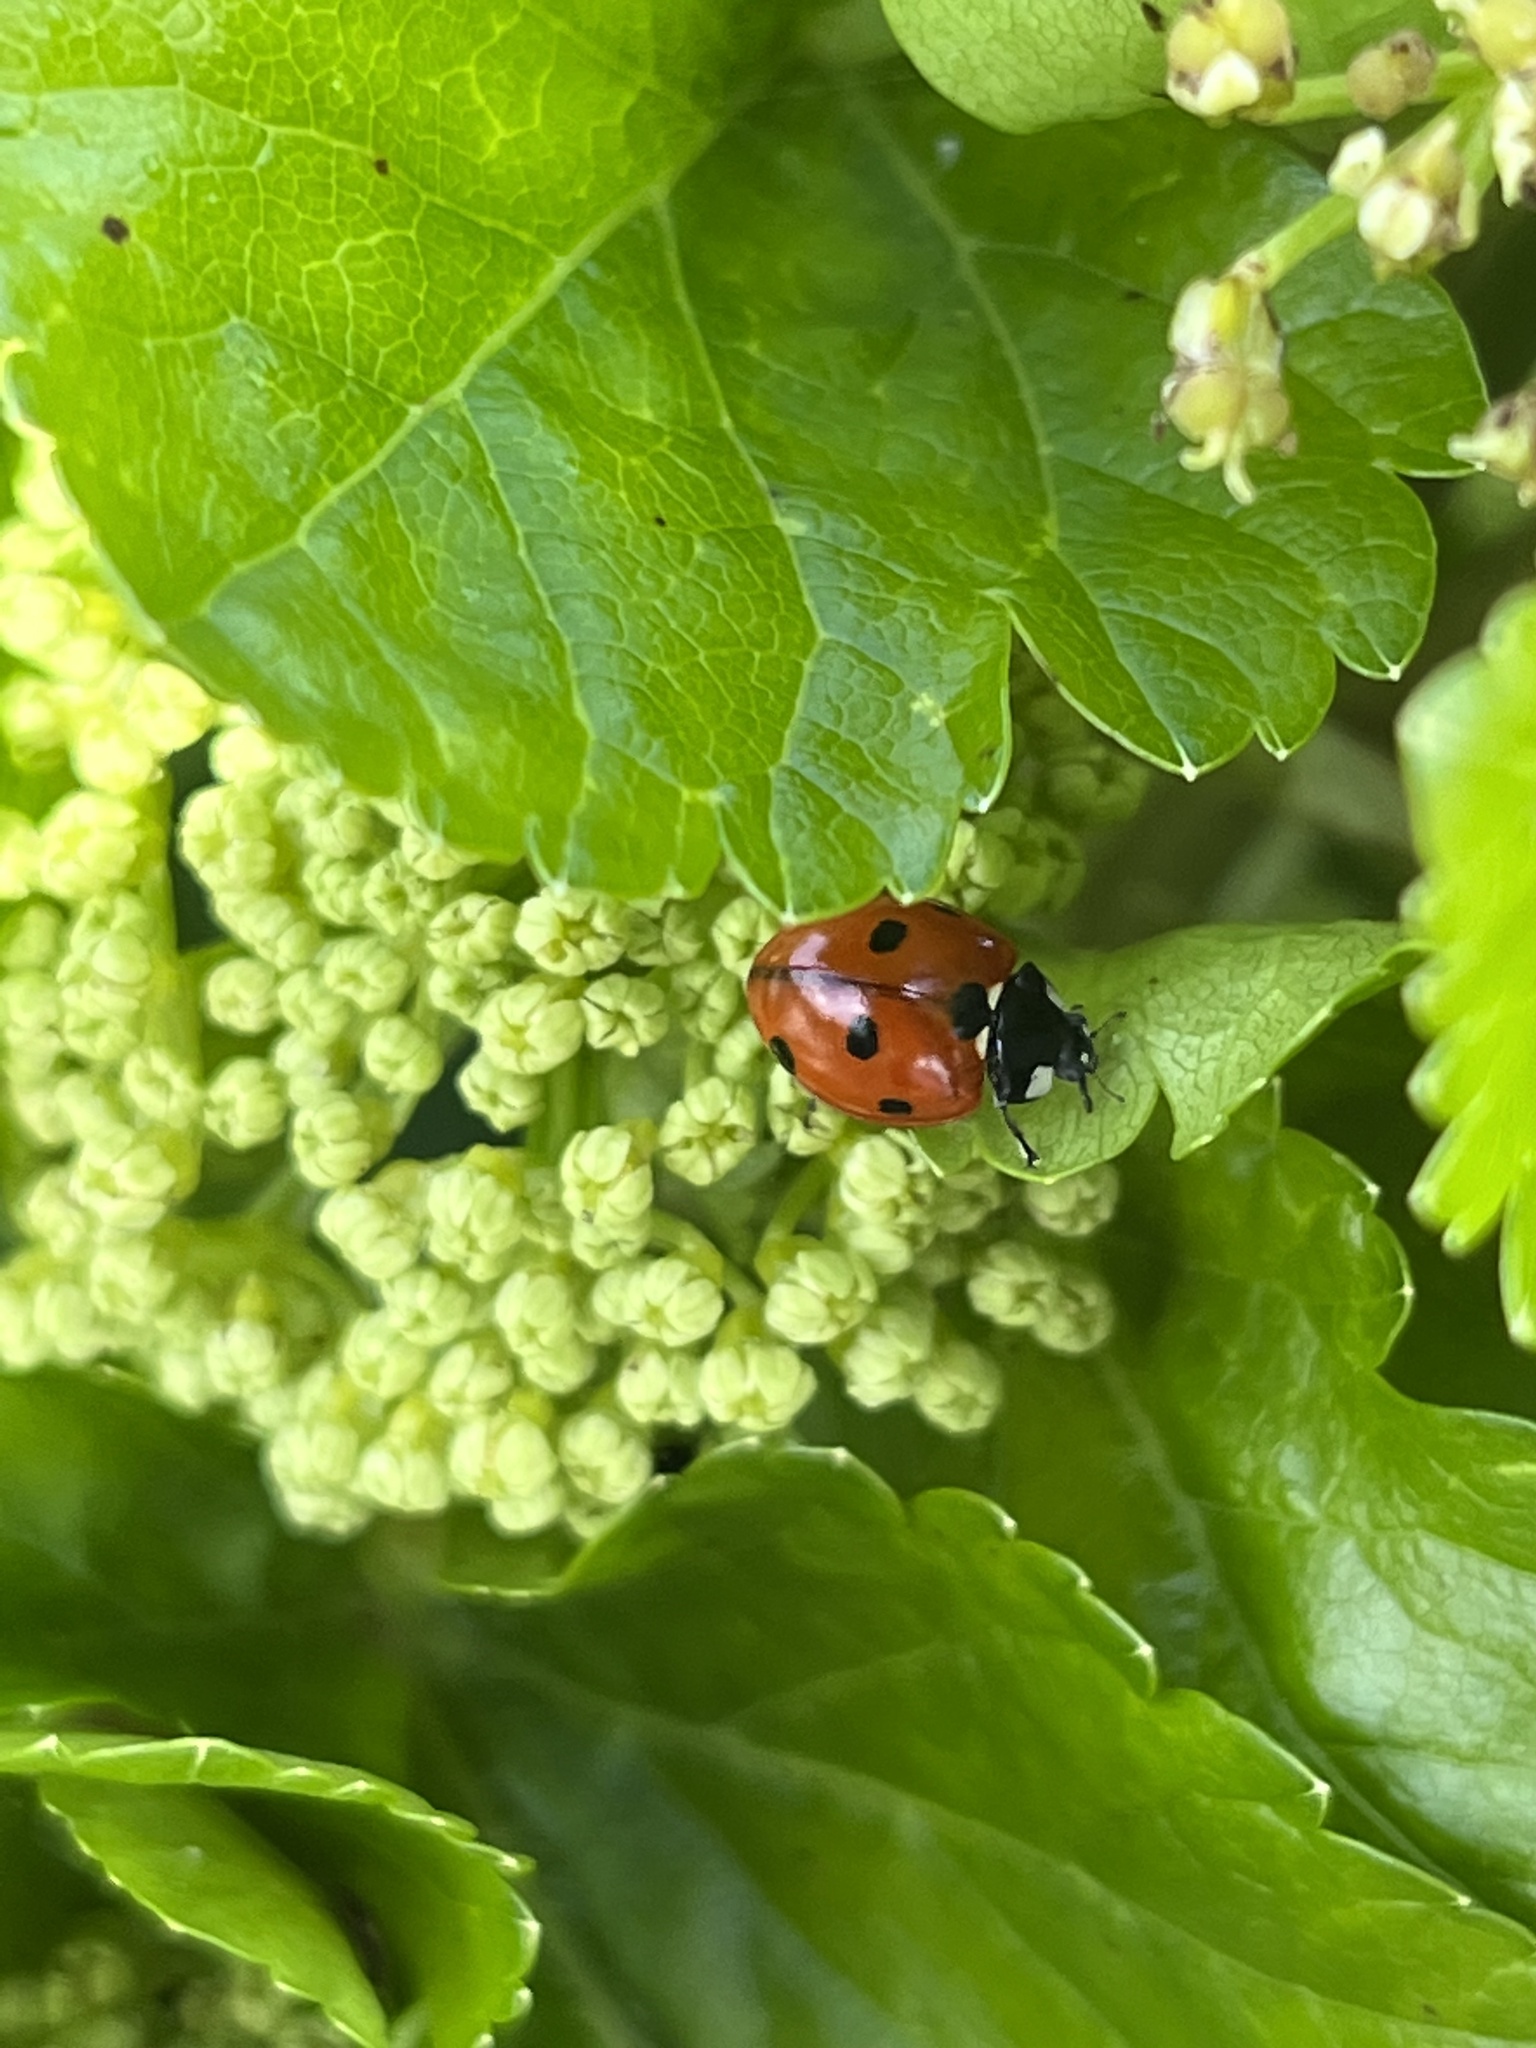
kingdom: Animalia
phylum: Arthropoda
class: Insecta
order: Coleoptera
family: Coccinellidae
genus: Coccinella
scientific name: Coccinella septempunctata
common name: Sevenspotted lady beetle
